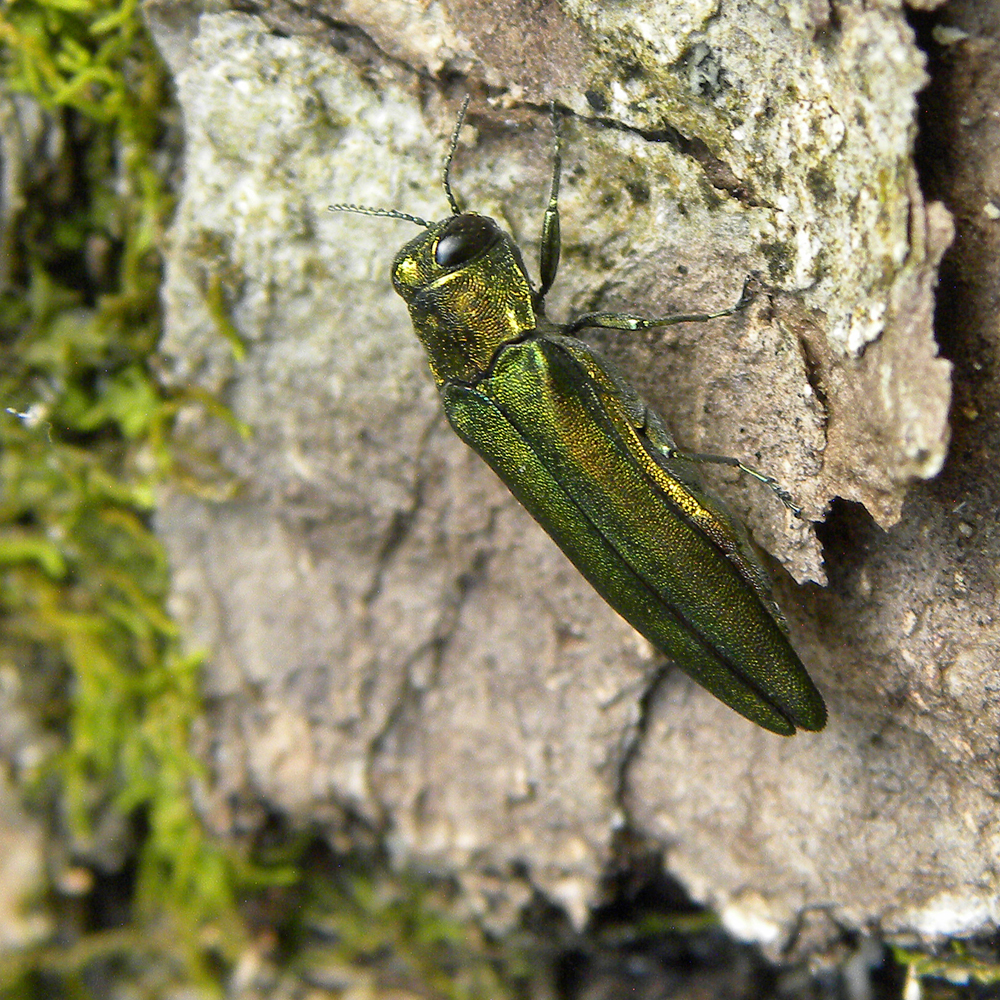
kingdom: Animalia
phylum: Arthropoda
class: Insecta
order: Coleoptera
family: Buprestidae
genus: Agrilus
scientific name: Agrilus planipennis
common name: Emerald ash borer
